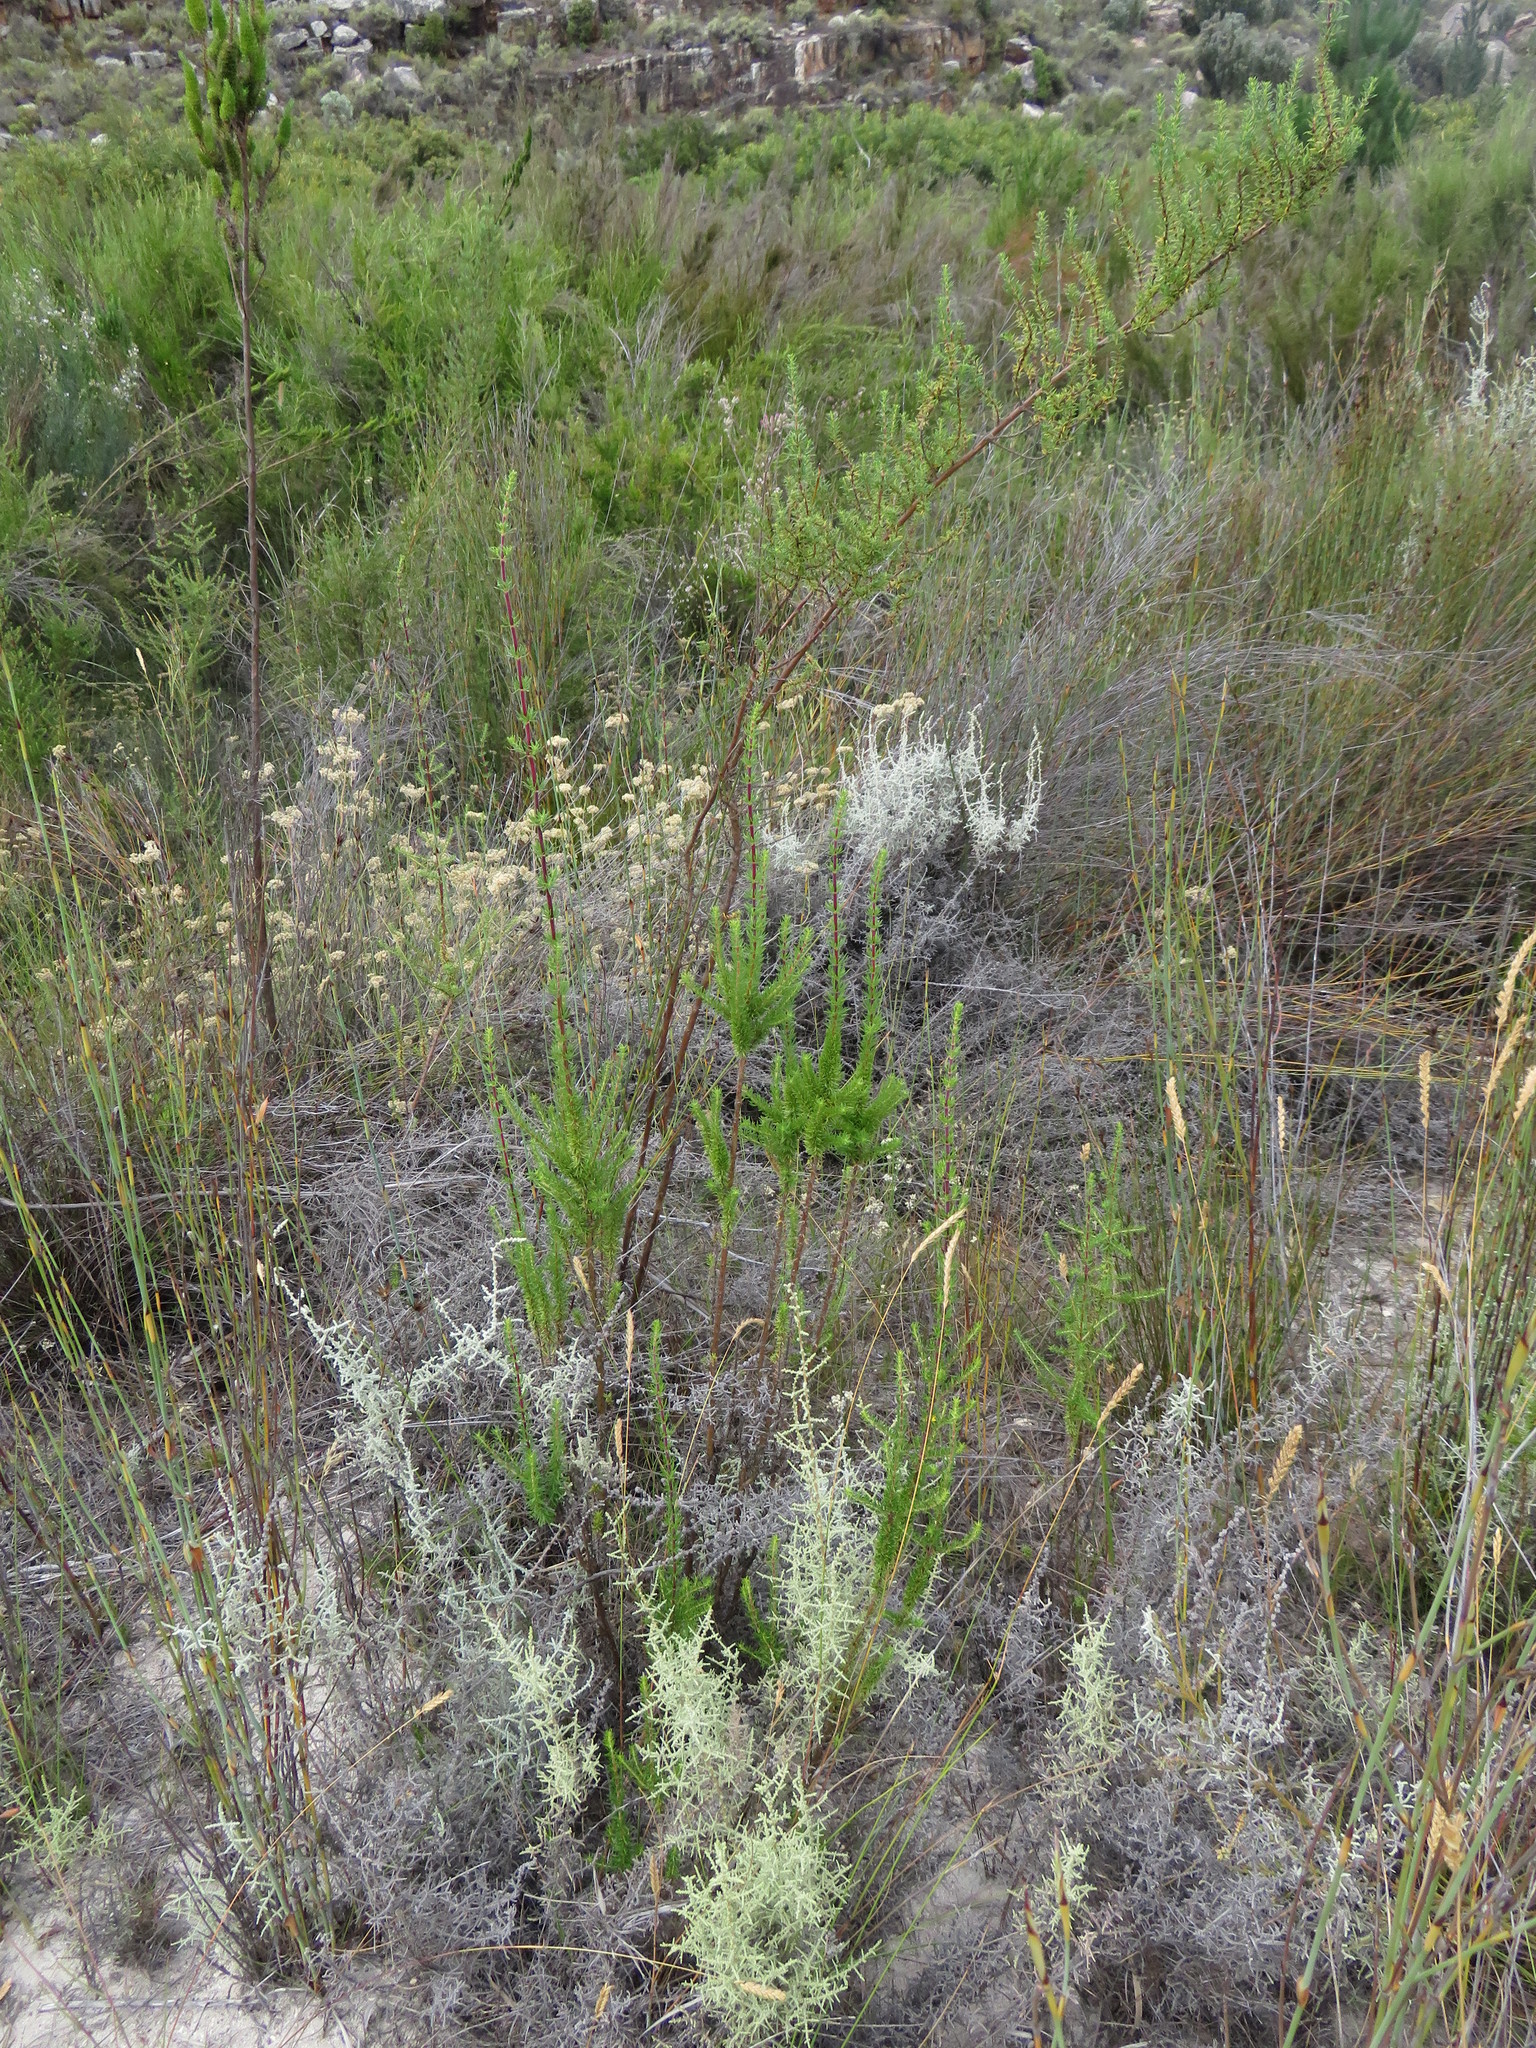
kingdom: Plantae
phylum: Tracheophyta
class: Magnoliopsida
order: Asterales
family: Asteraceae
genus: Seriphium
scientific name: Seriphium plumosum
